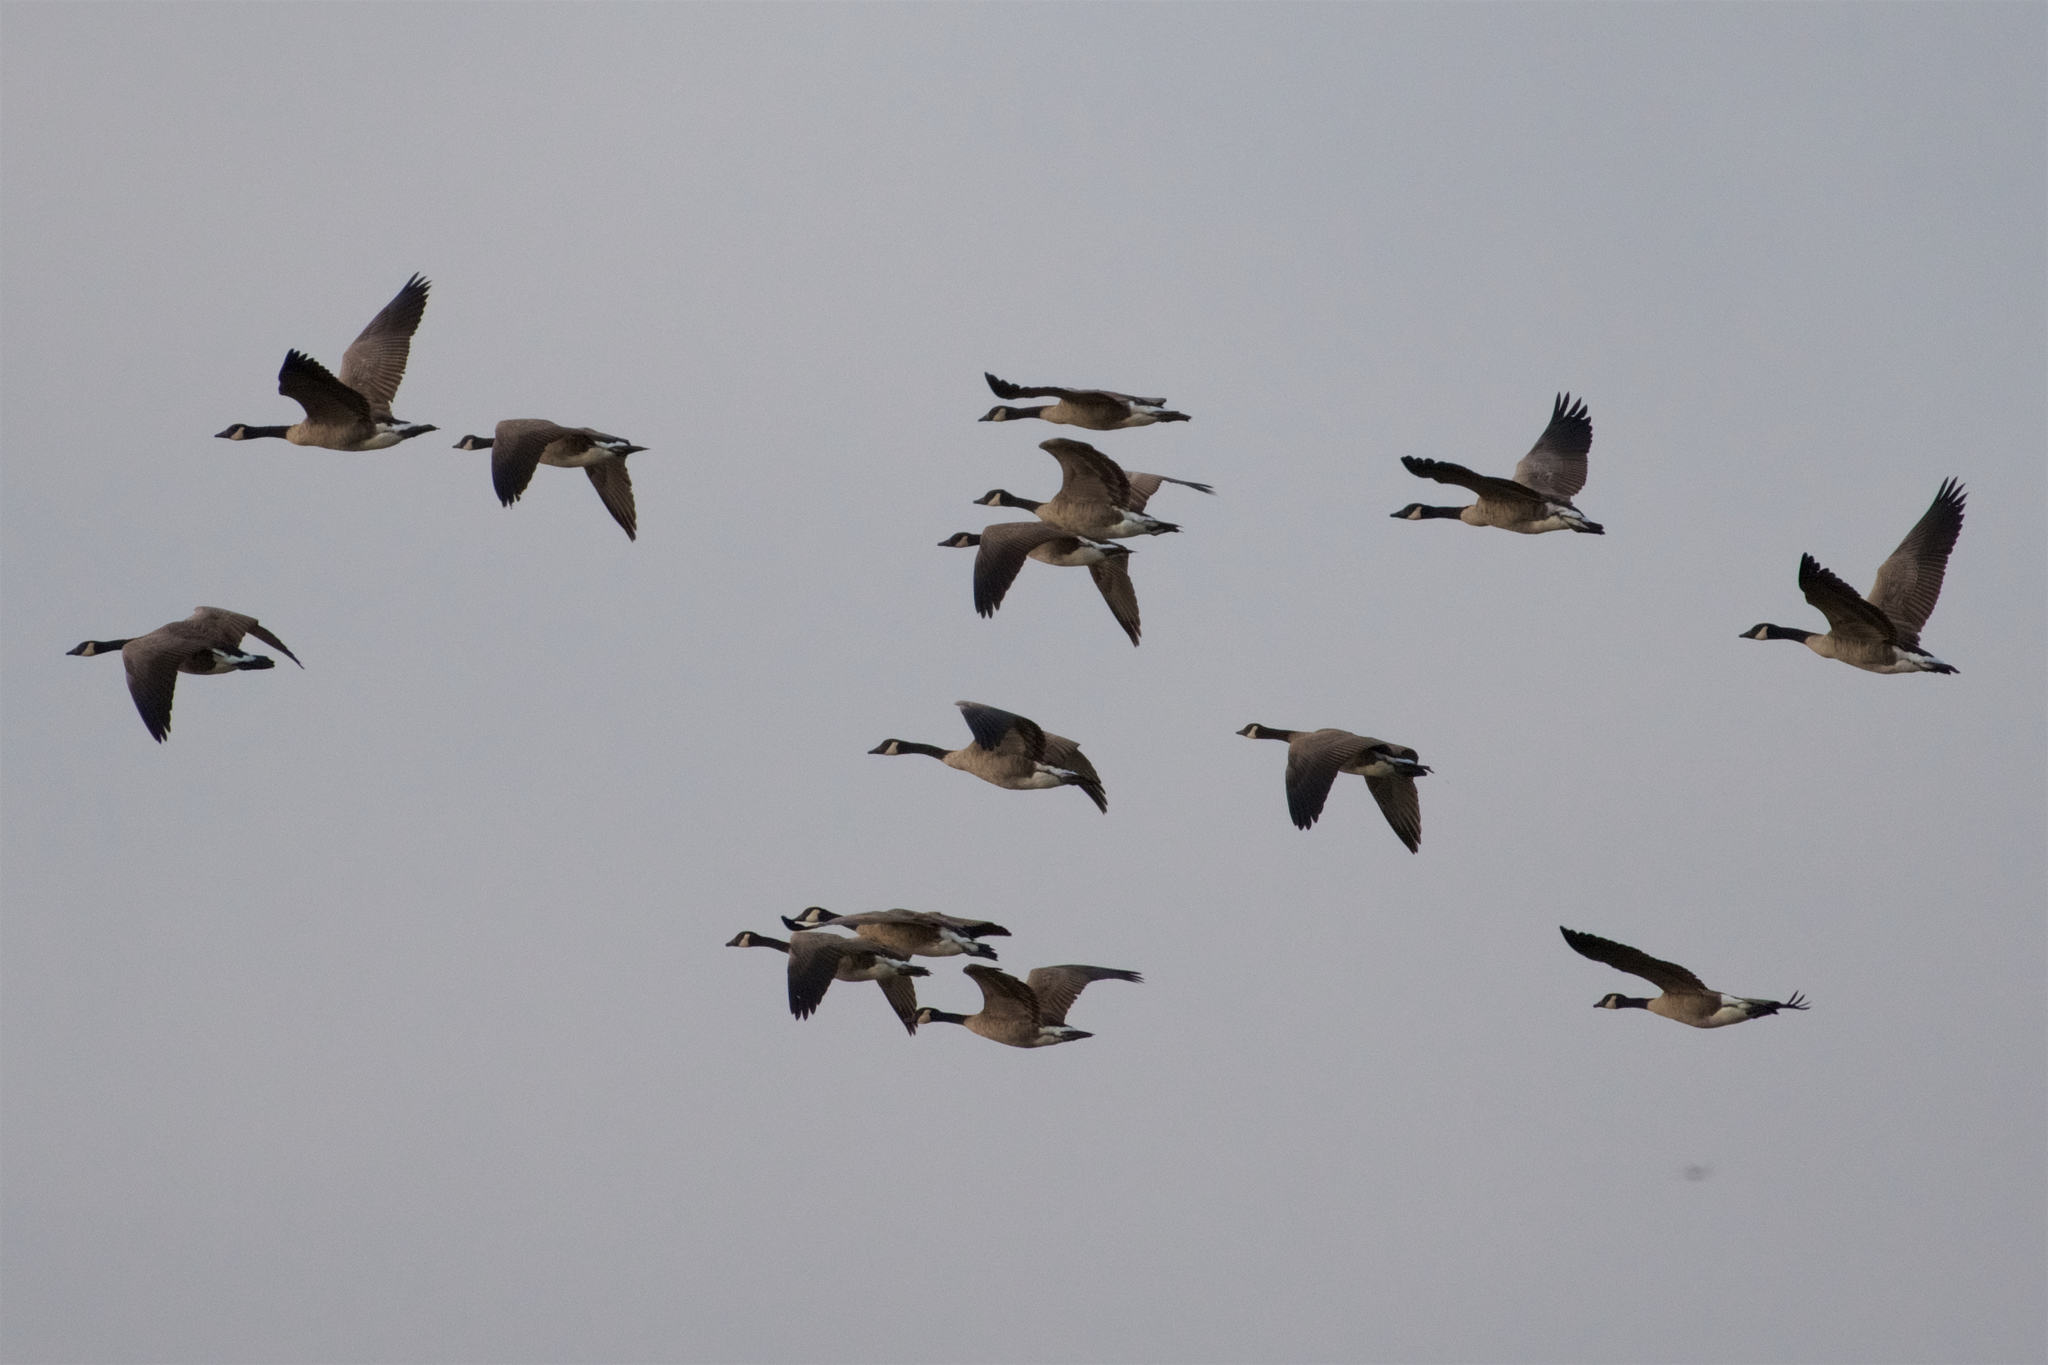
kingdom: Animalia
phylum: Chordata
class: Aves
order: Anseriformes
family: Anatidae
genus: Branta
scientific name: Branta canadensis
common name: Canada goose
